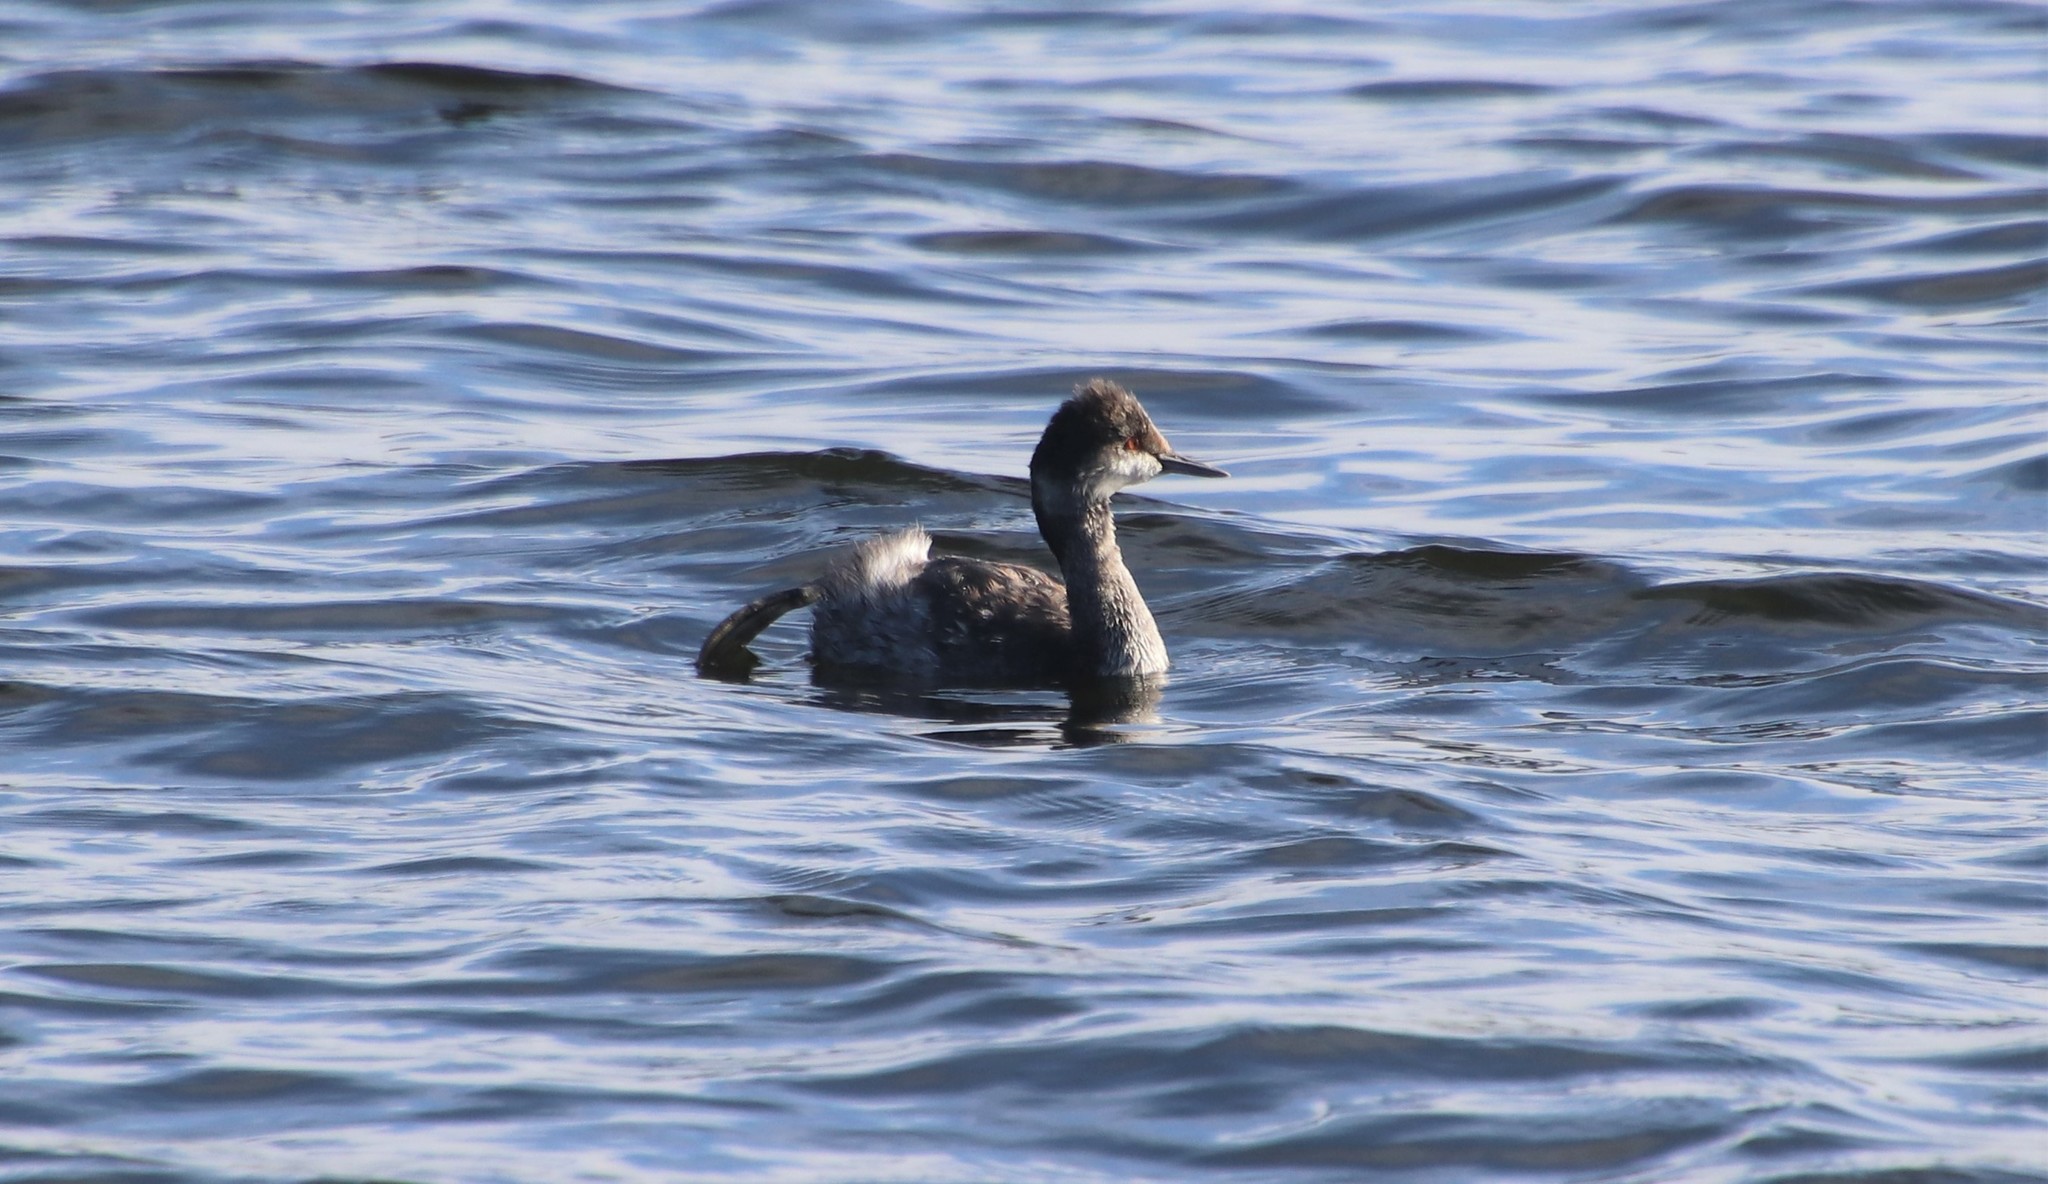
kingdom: Animalia
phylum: Chordata
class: Aves
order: Podicipediformes
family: Podicipedidae
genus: Podiceps
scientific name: Podiceps nigricollis
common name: Black-necked grebe
